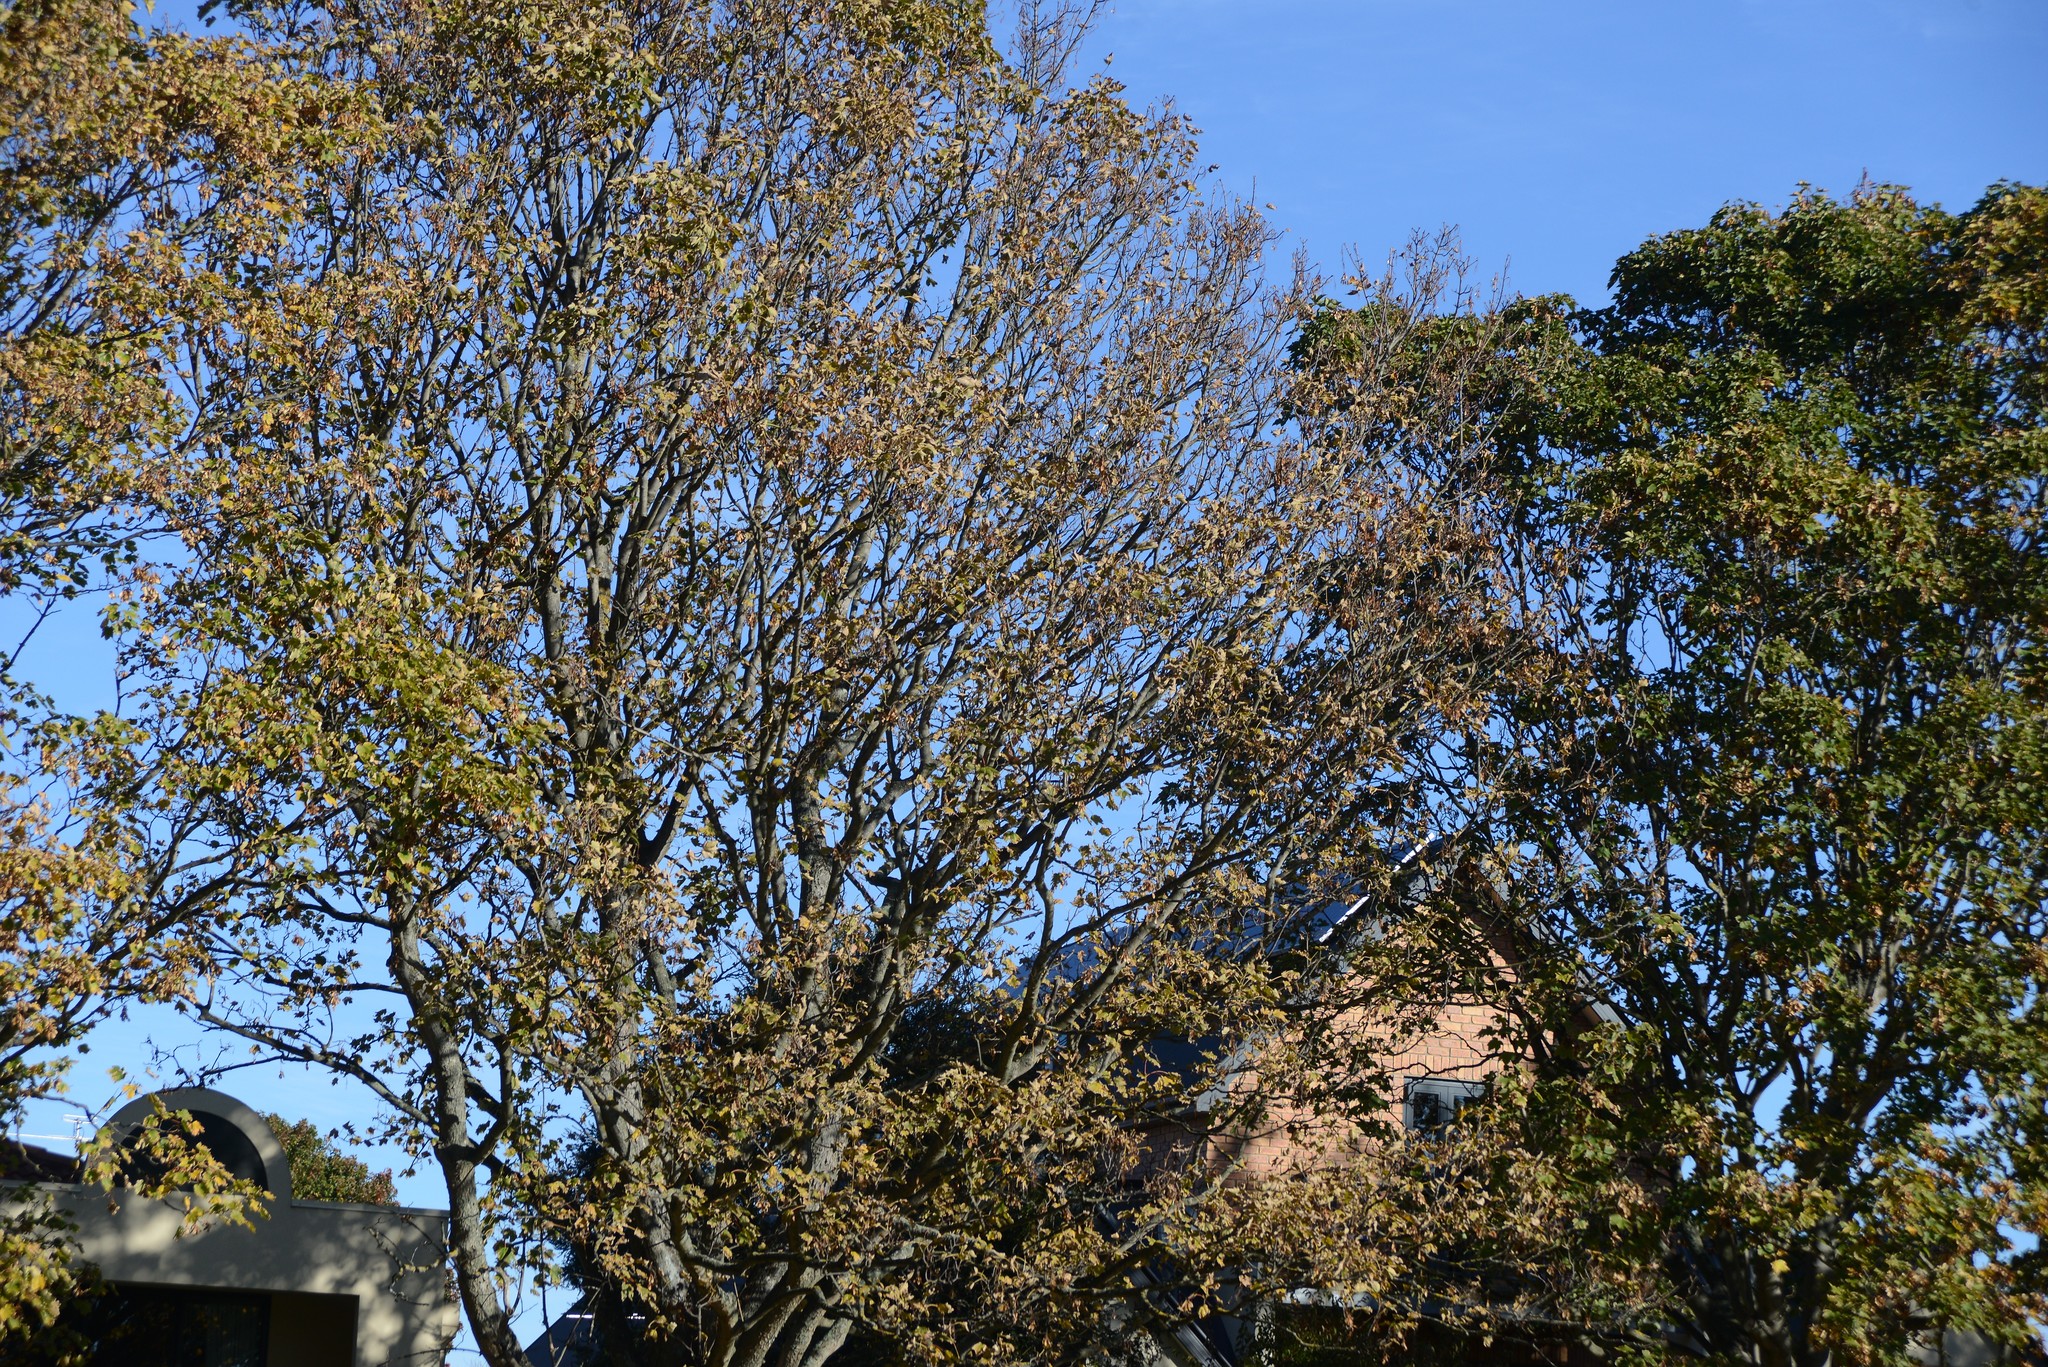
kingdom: Plantae
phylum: Tracheophyta
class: Magnoliopsida
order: Sapindales
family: Sapindaceae
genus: Acer
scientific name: Acer pseudoplatanus
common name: Sycamore
